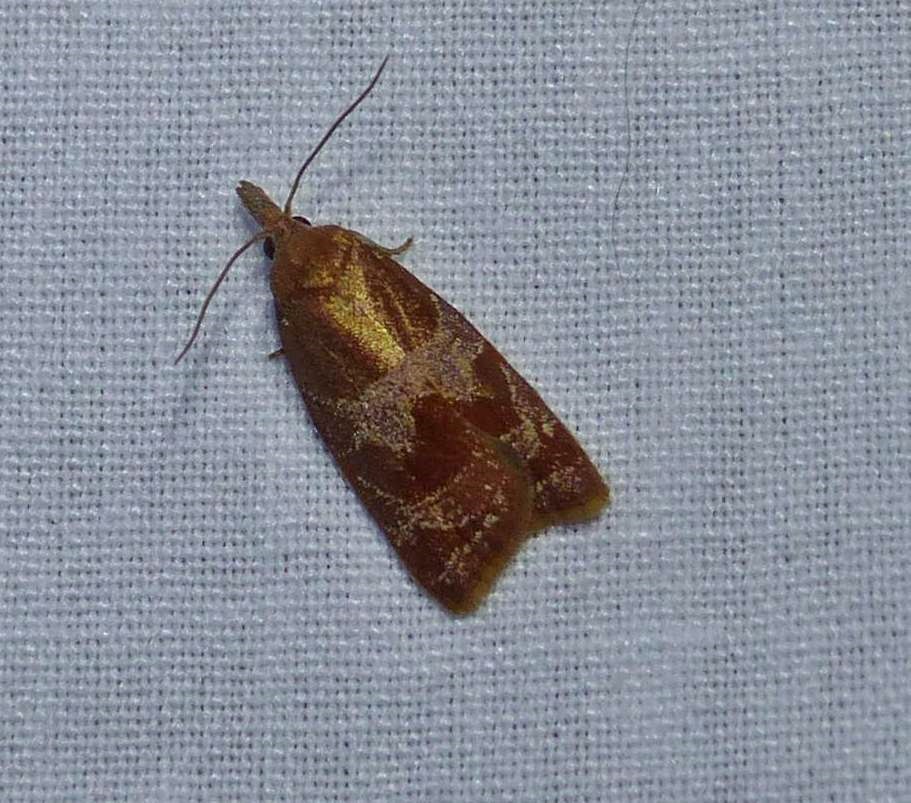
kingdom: Animalia
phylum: Arthropoda
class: Insecta
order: Lepidoptera
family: Tortricidae
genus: Cenopis
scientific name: Cenopis diluticostana
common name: Spring dead-leaf roller moth
